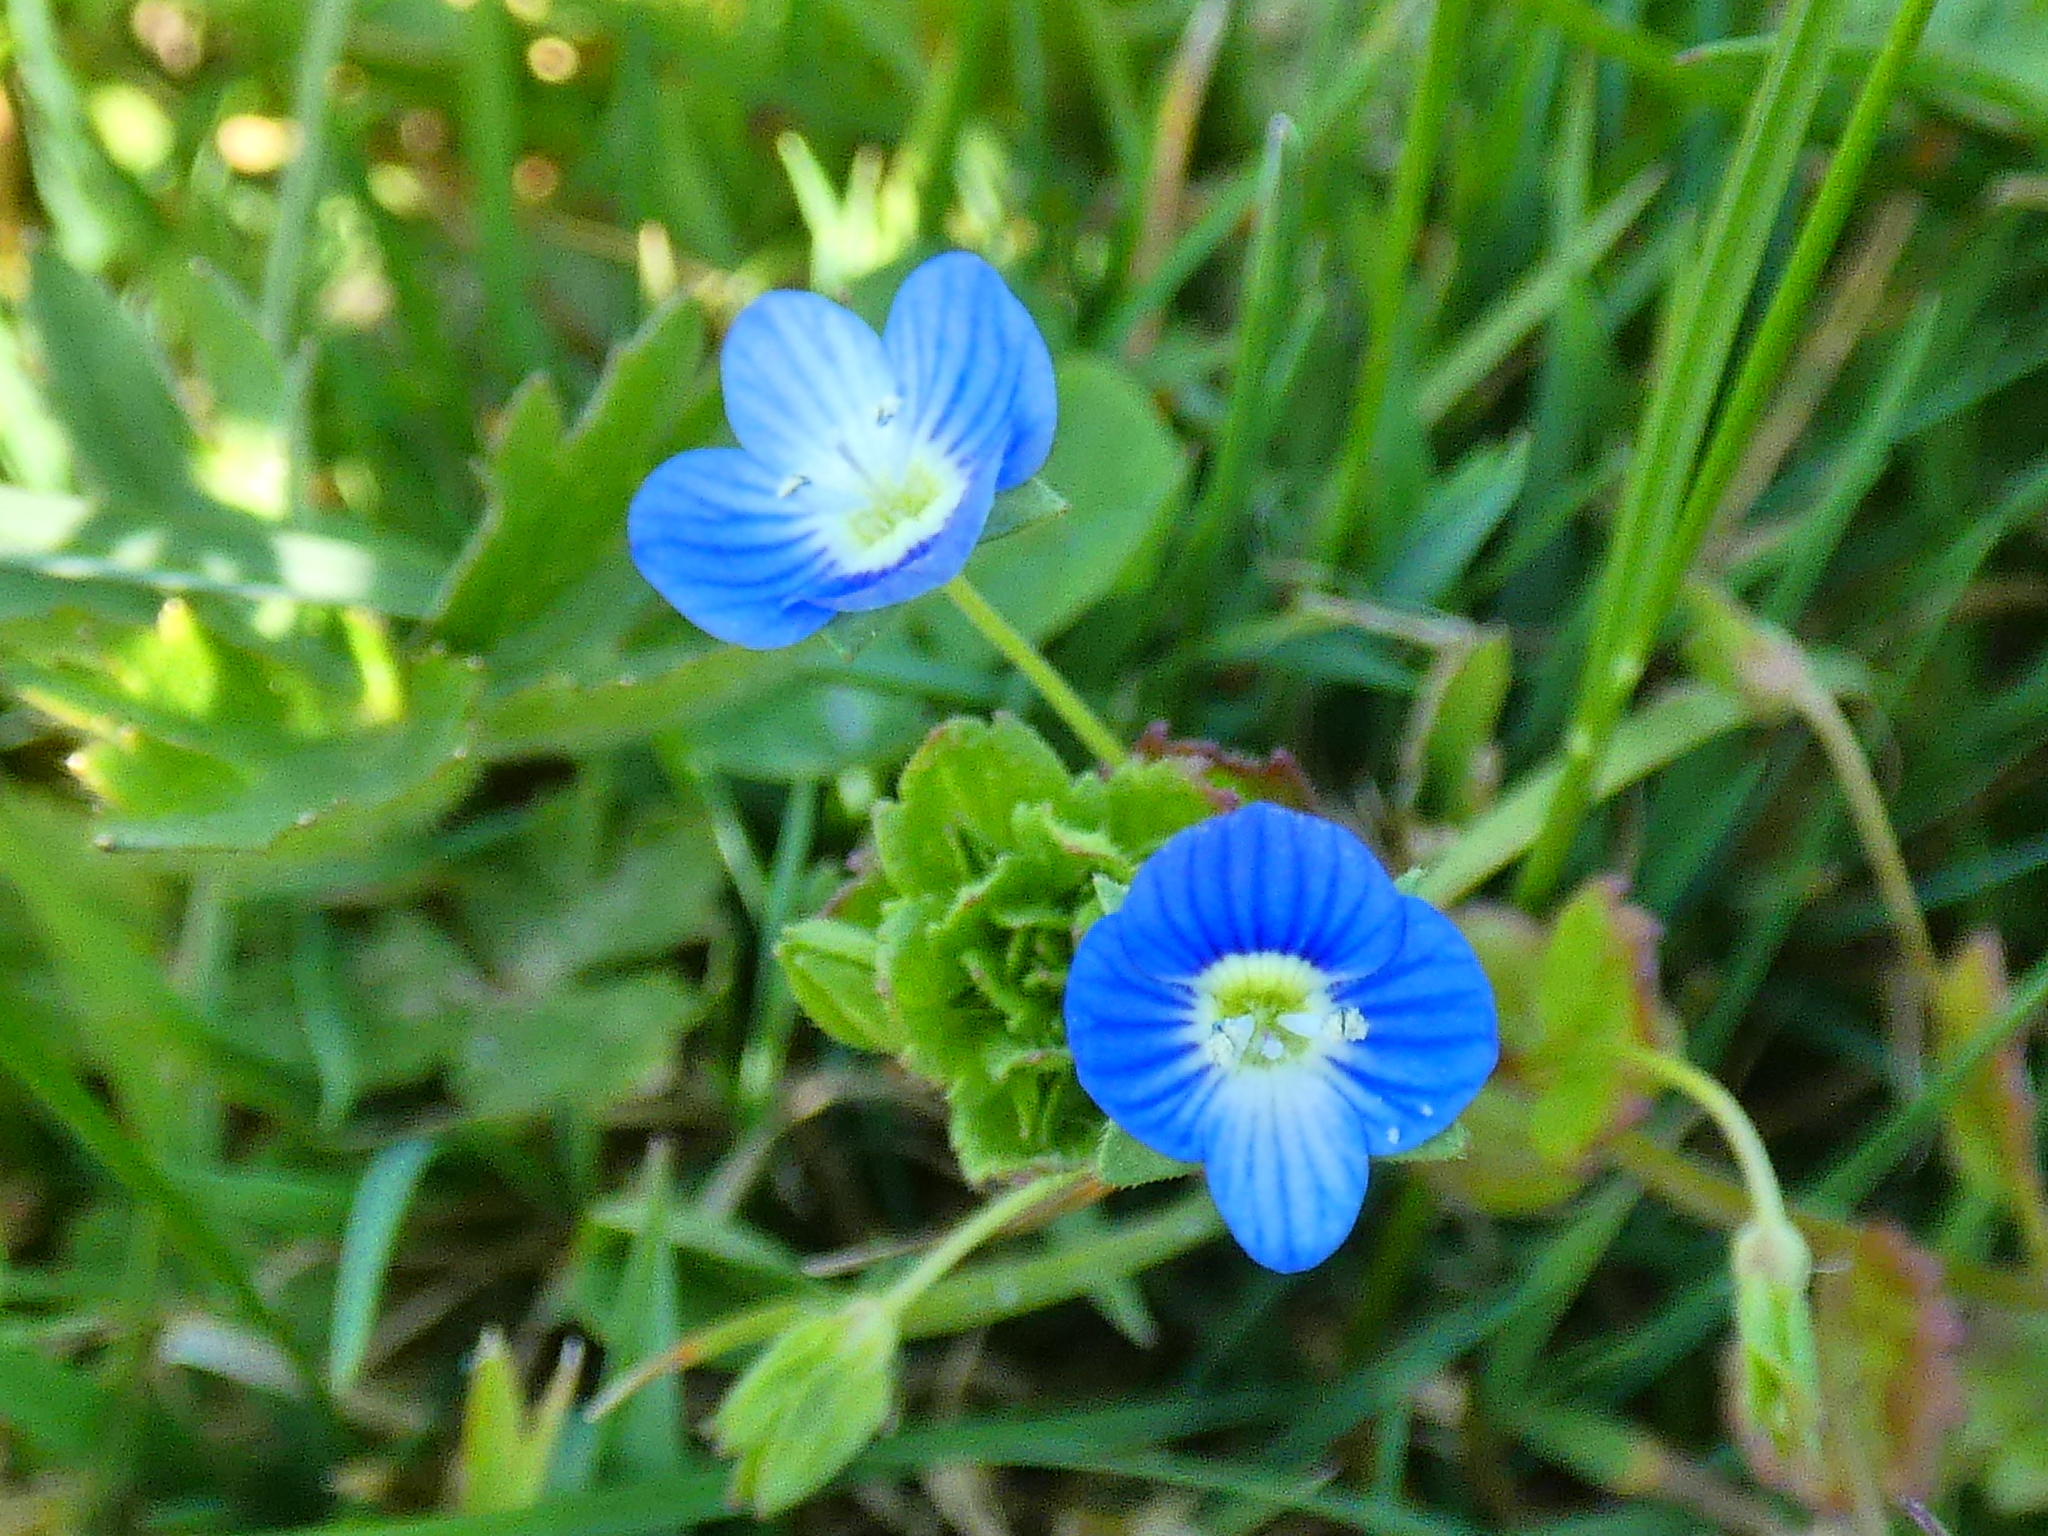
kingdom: Plantae
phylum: Tracheophyta
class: Magnoliopsida
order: Lamiales
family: Plantaginaceae
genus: Veronica
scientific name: Veronica persica
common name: Common field-speedwell
